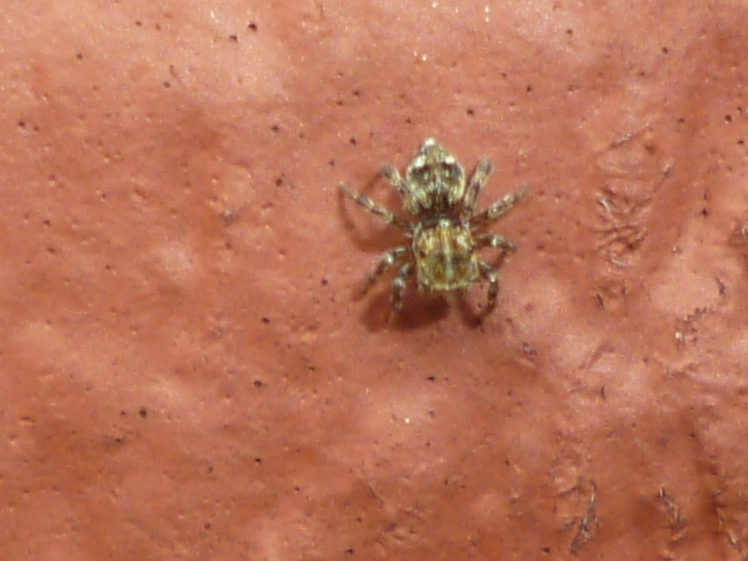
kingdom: Animalia
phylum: Arthropoda
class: Arachnida
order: Araneae
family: Salticidae
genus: Attulus
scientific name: Attulus fasciger
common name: Asiatic wall jumping spider
